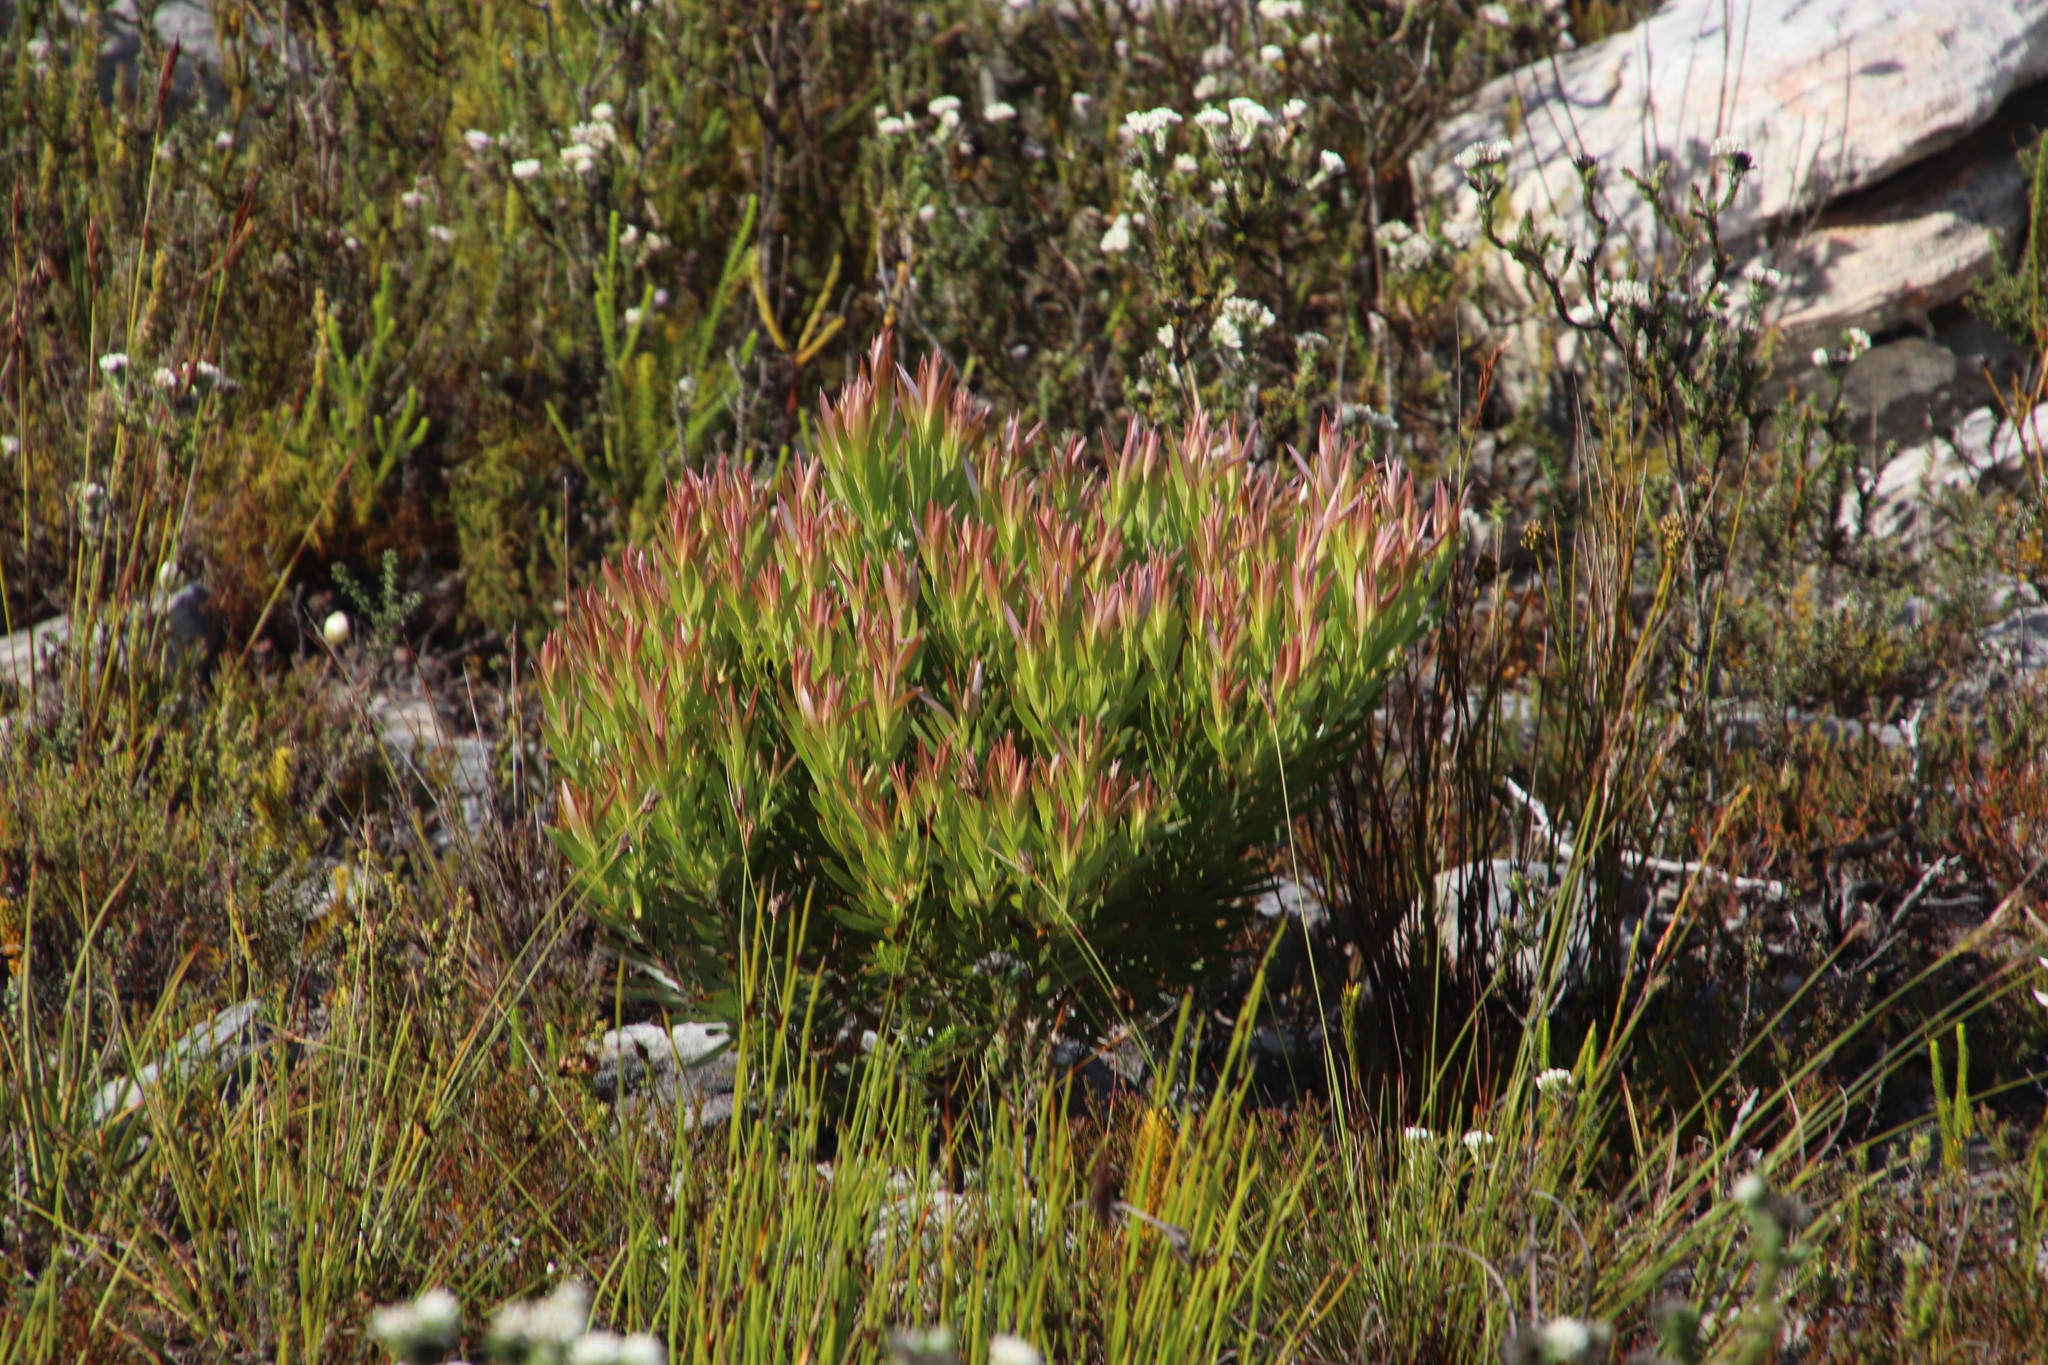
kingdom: Plantae
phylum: Tracheophyta
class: Magnoliopsida
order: Proteales
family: Proteaceae
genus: Leucadendron
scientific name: Leucadendron xanthoconus
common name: Sickle-leaf conebush
